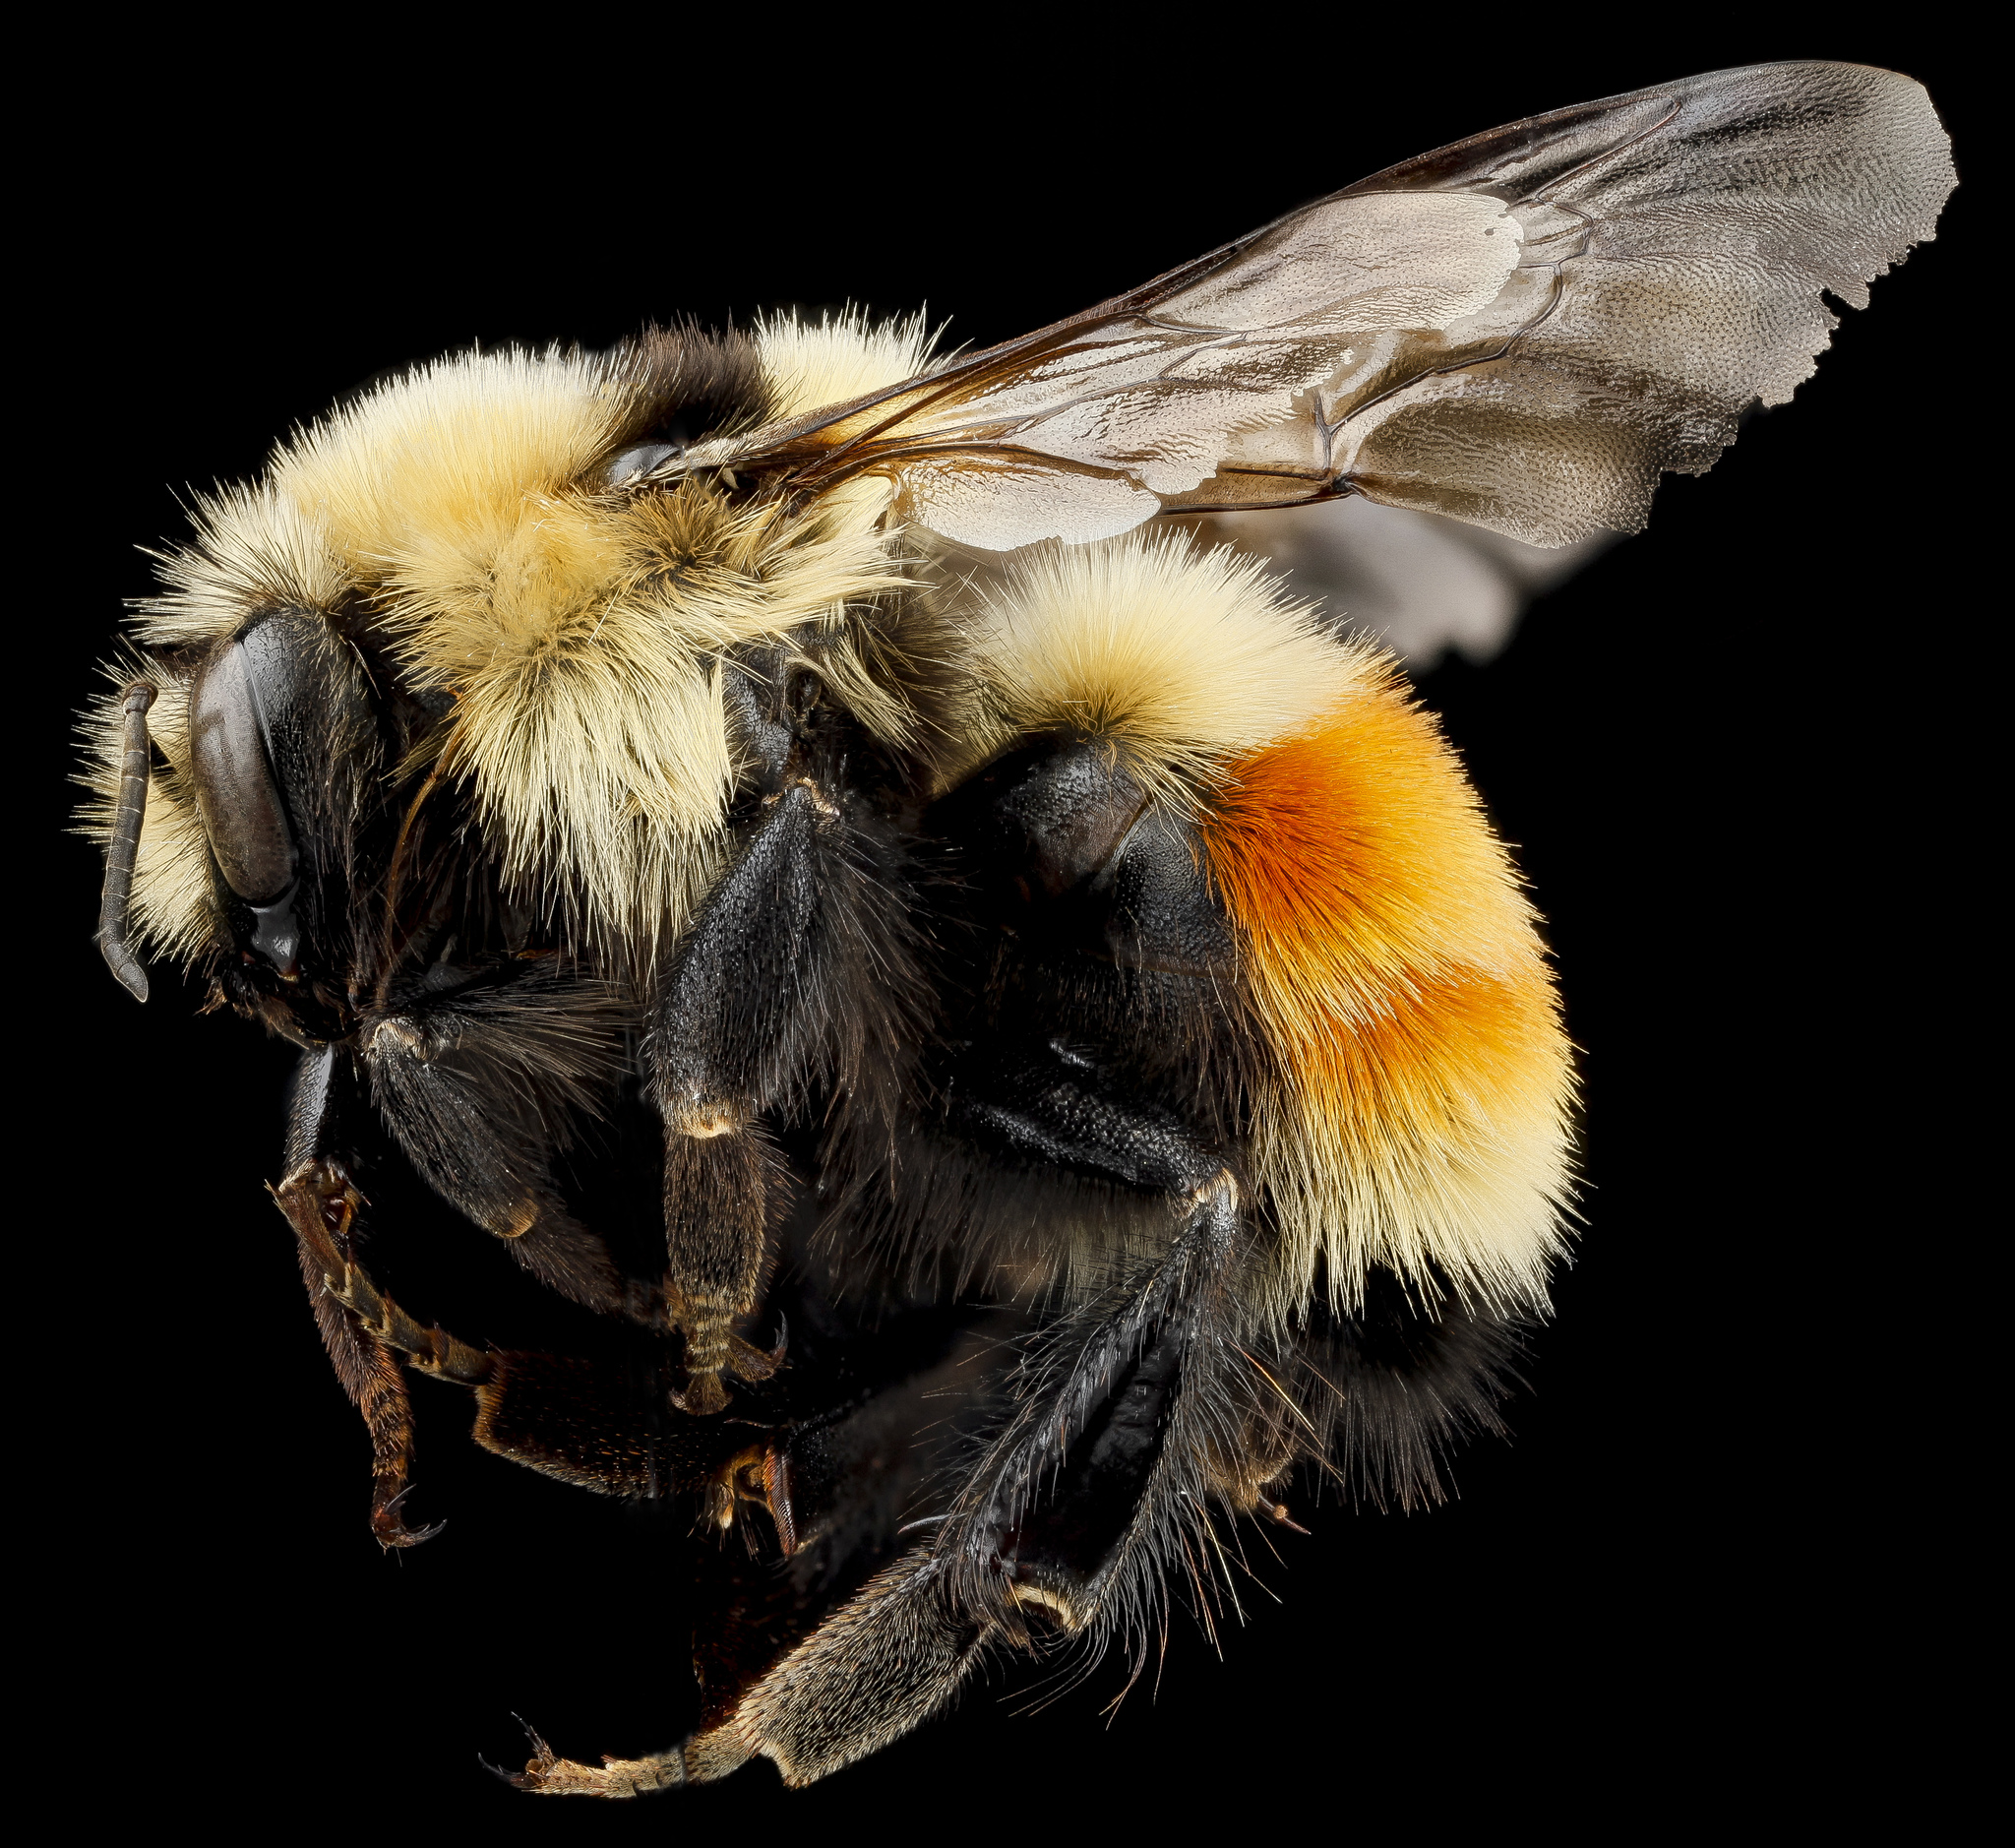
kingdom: Animalia
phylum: Arthropoda
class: Insecta
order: Hymenoptera
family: Apidae
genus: Bombus
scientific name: Bombus huntii
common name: Hunt bumble bee
